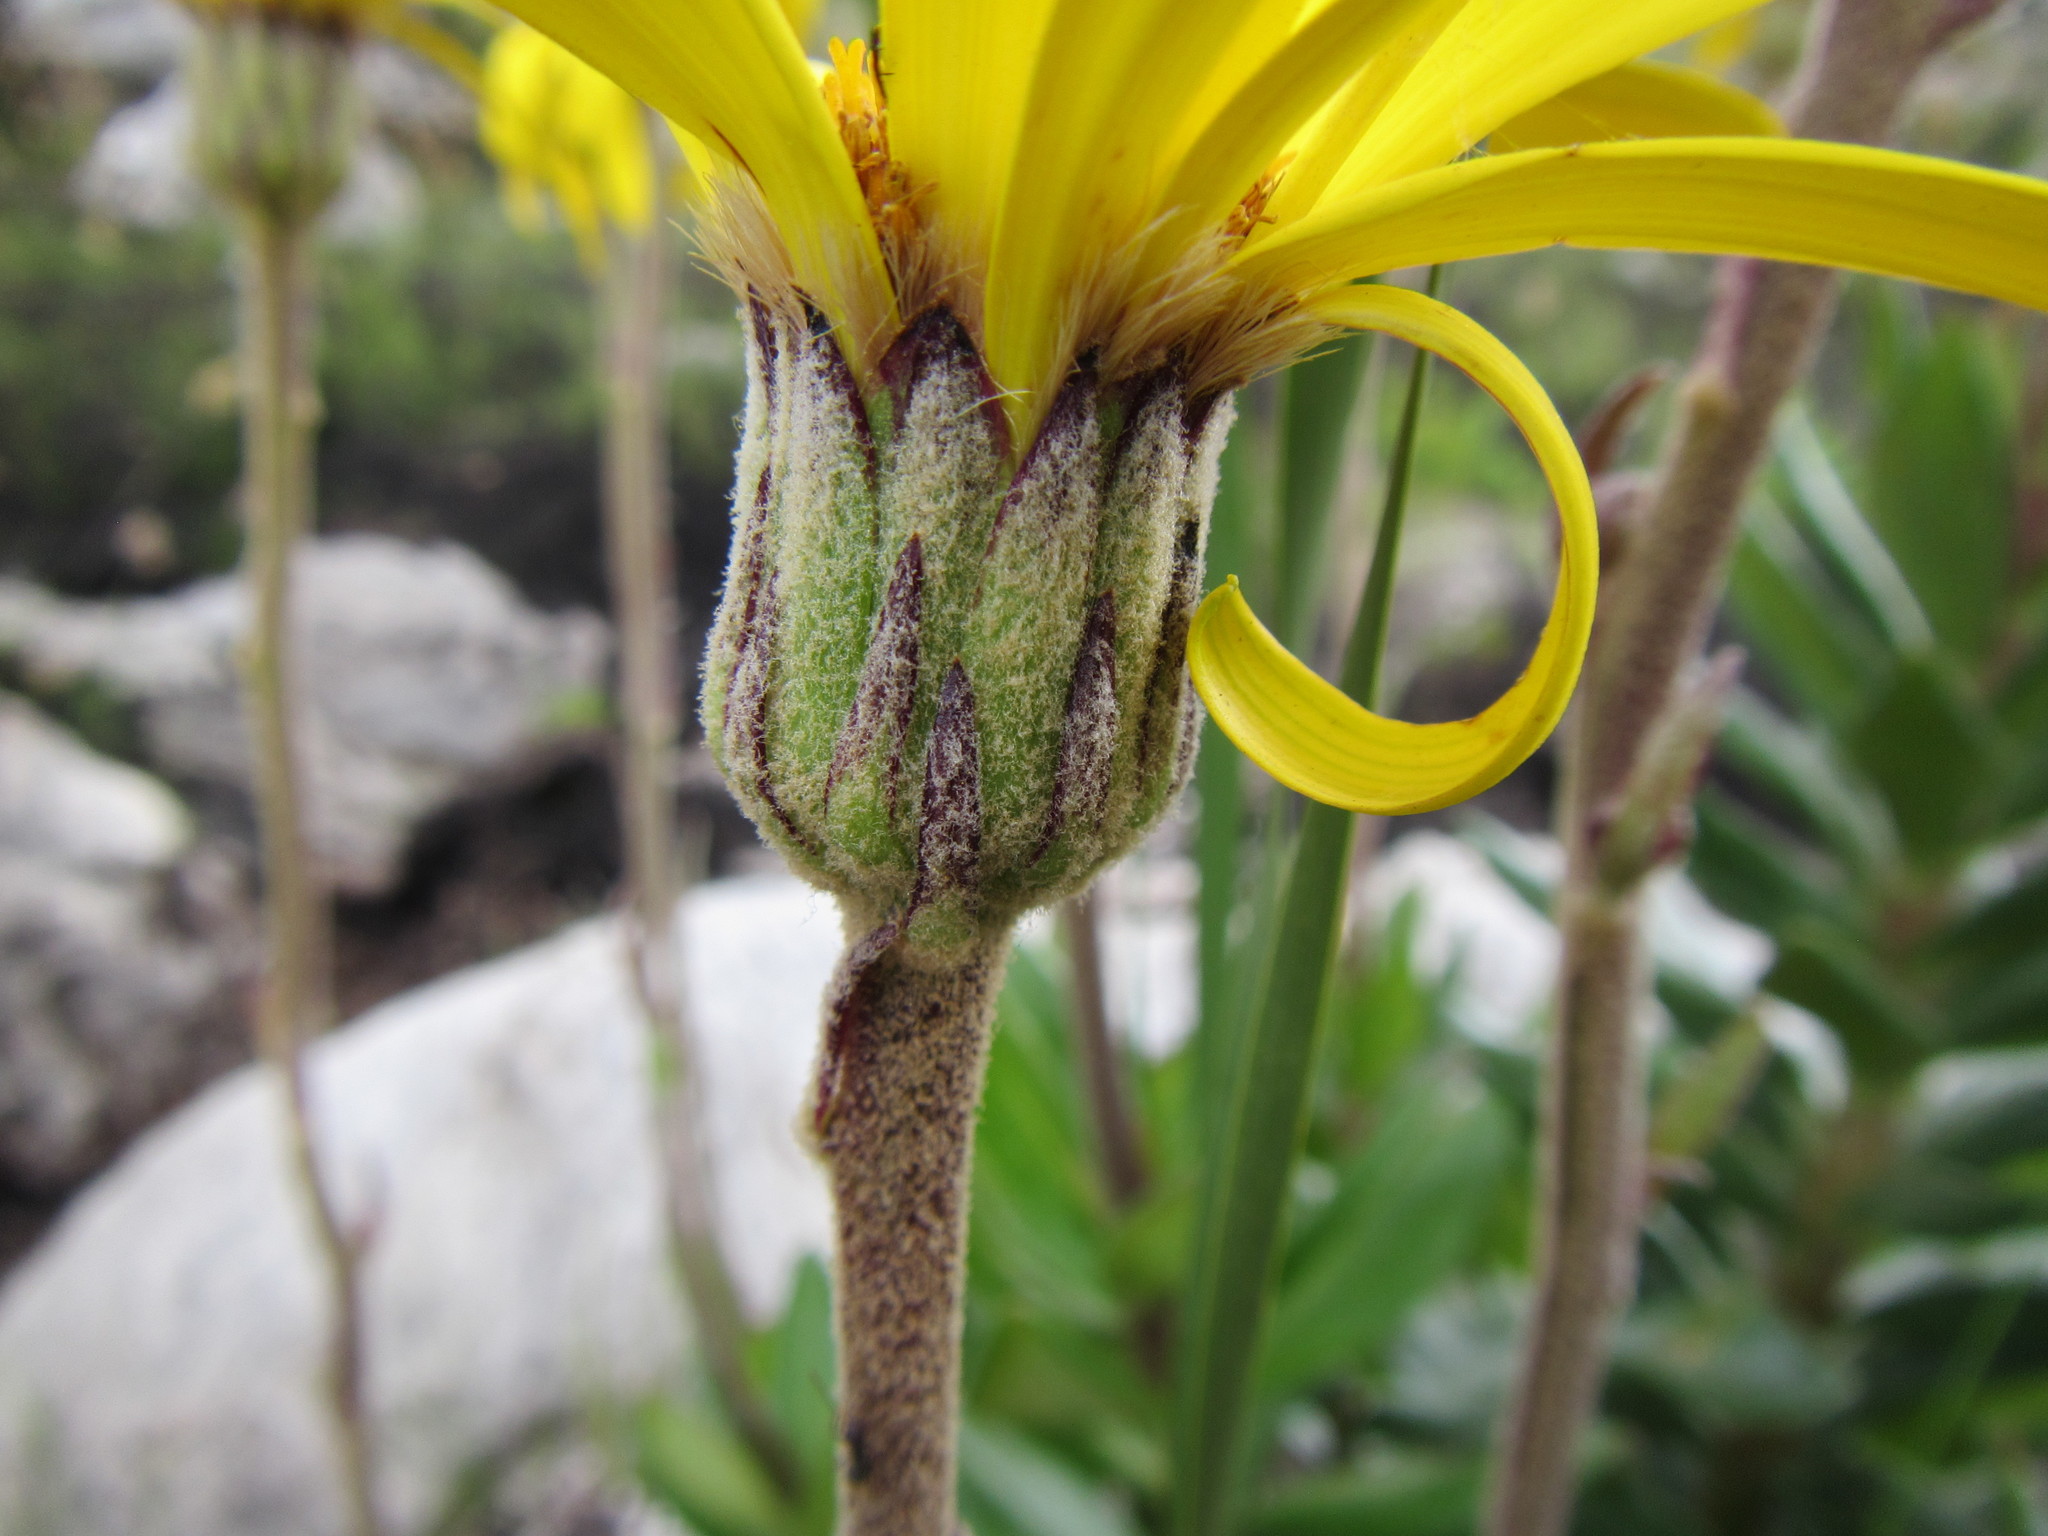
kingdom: Plantae
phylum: Tracheophyta
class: Magnoliopsida
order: Asterales
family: Asteraceae
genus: Capelio
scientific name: Capelio caledonica
